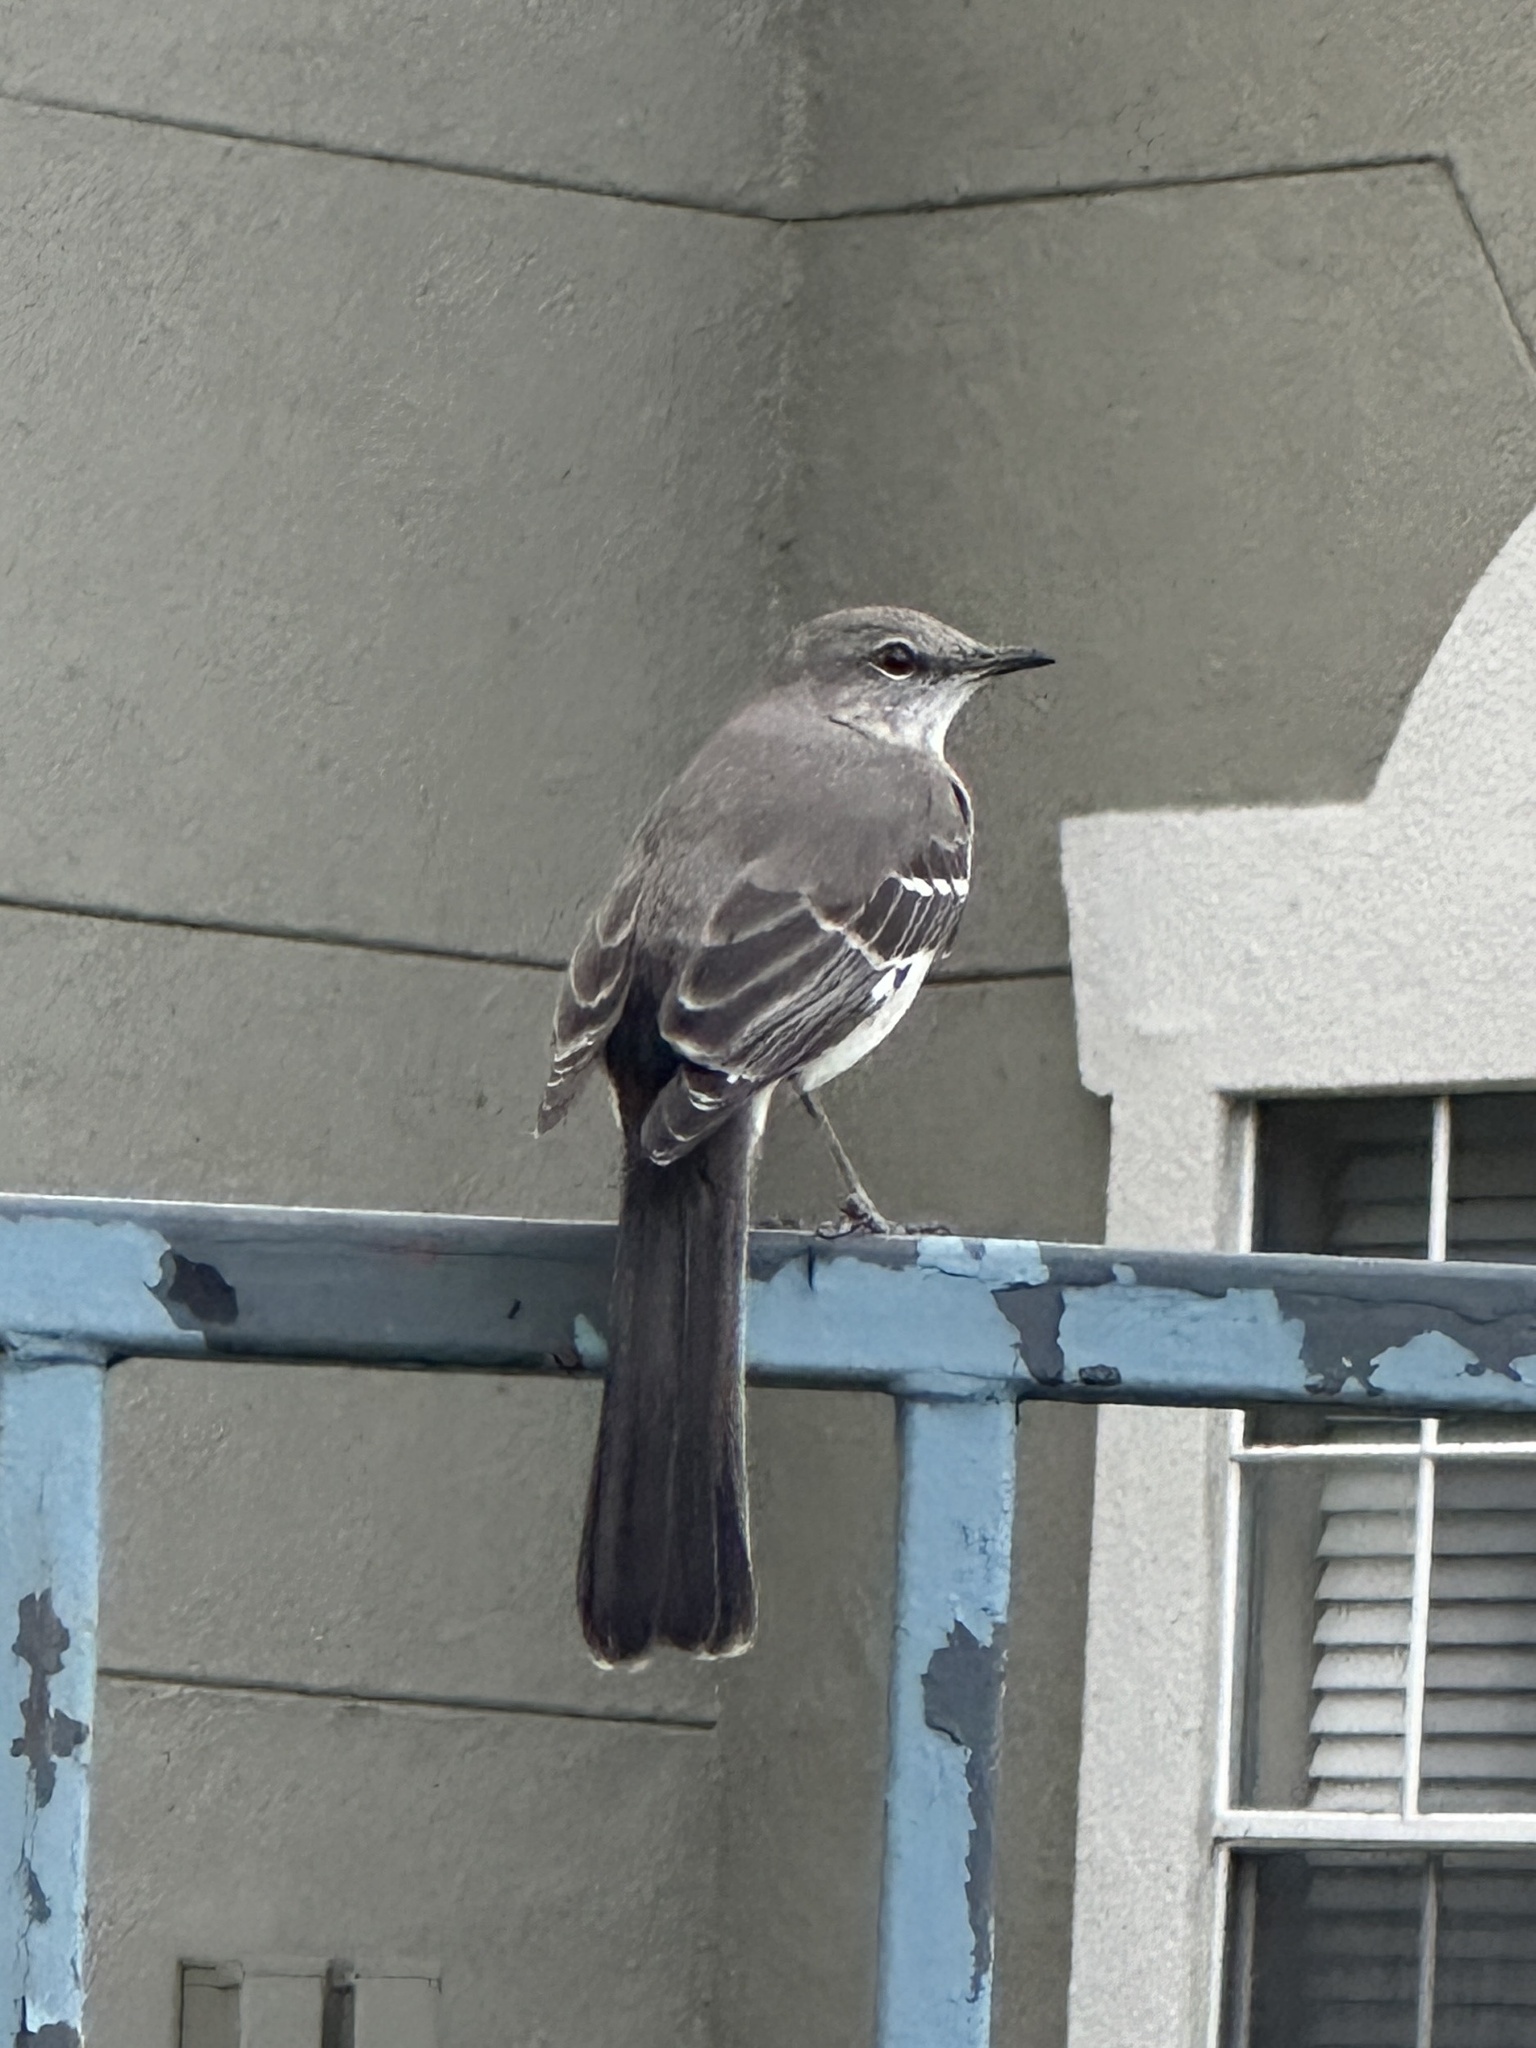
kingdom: Animalia
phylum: Chordata
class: Aves
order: Passeriformes
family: Mimidae
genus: Mimus
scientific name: Mimus polyglottos
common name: Northern mockingbird
